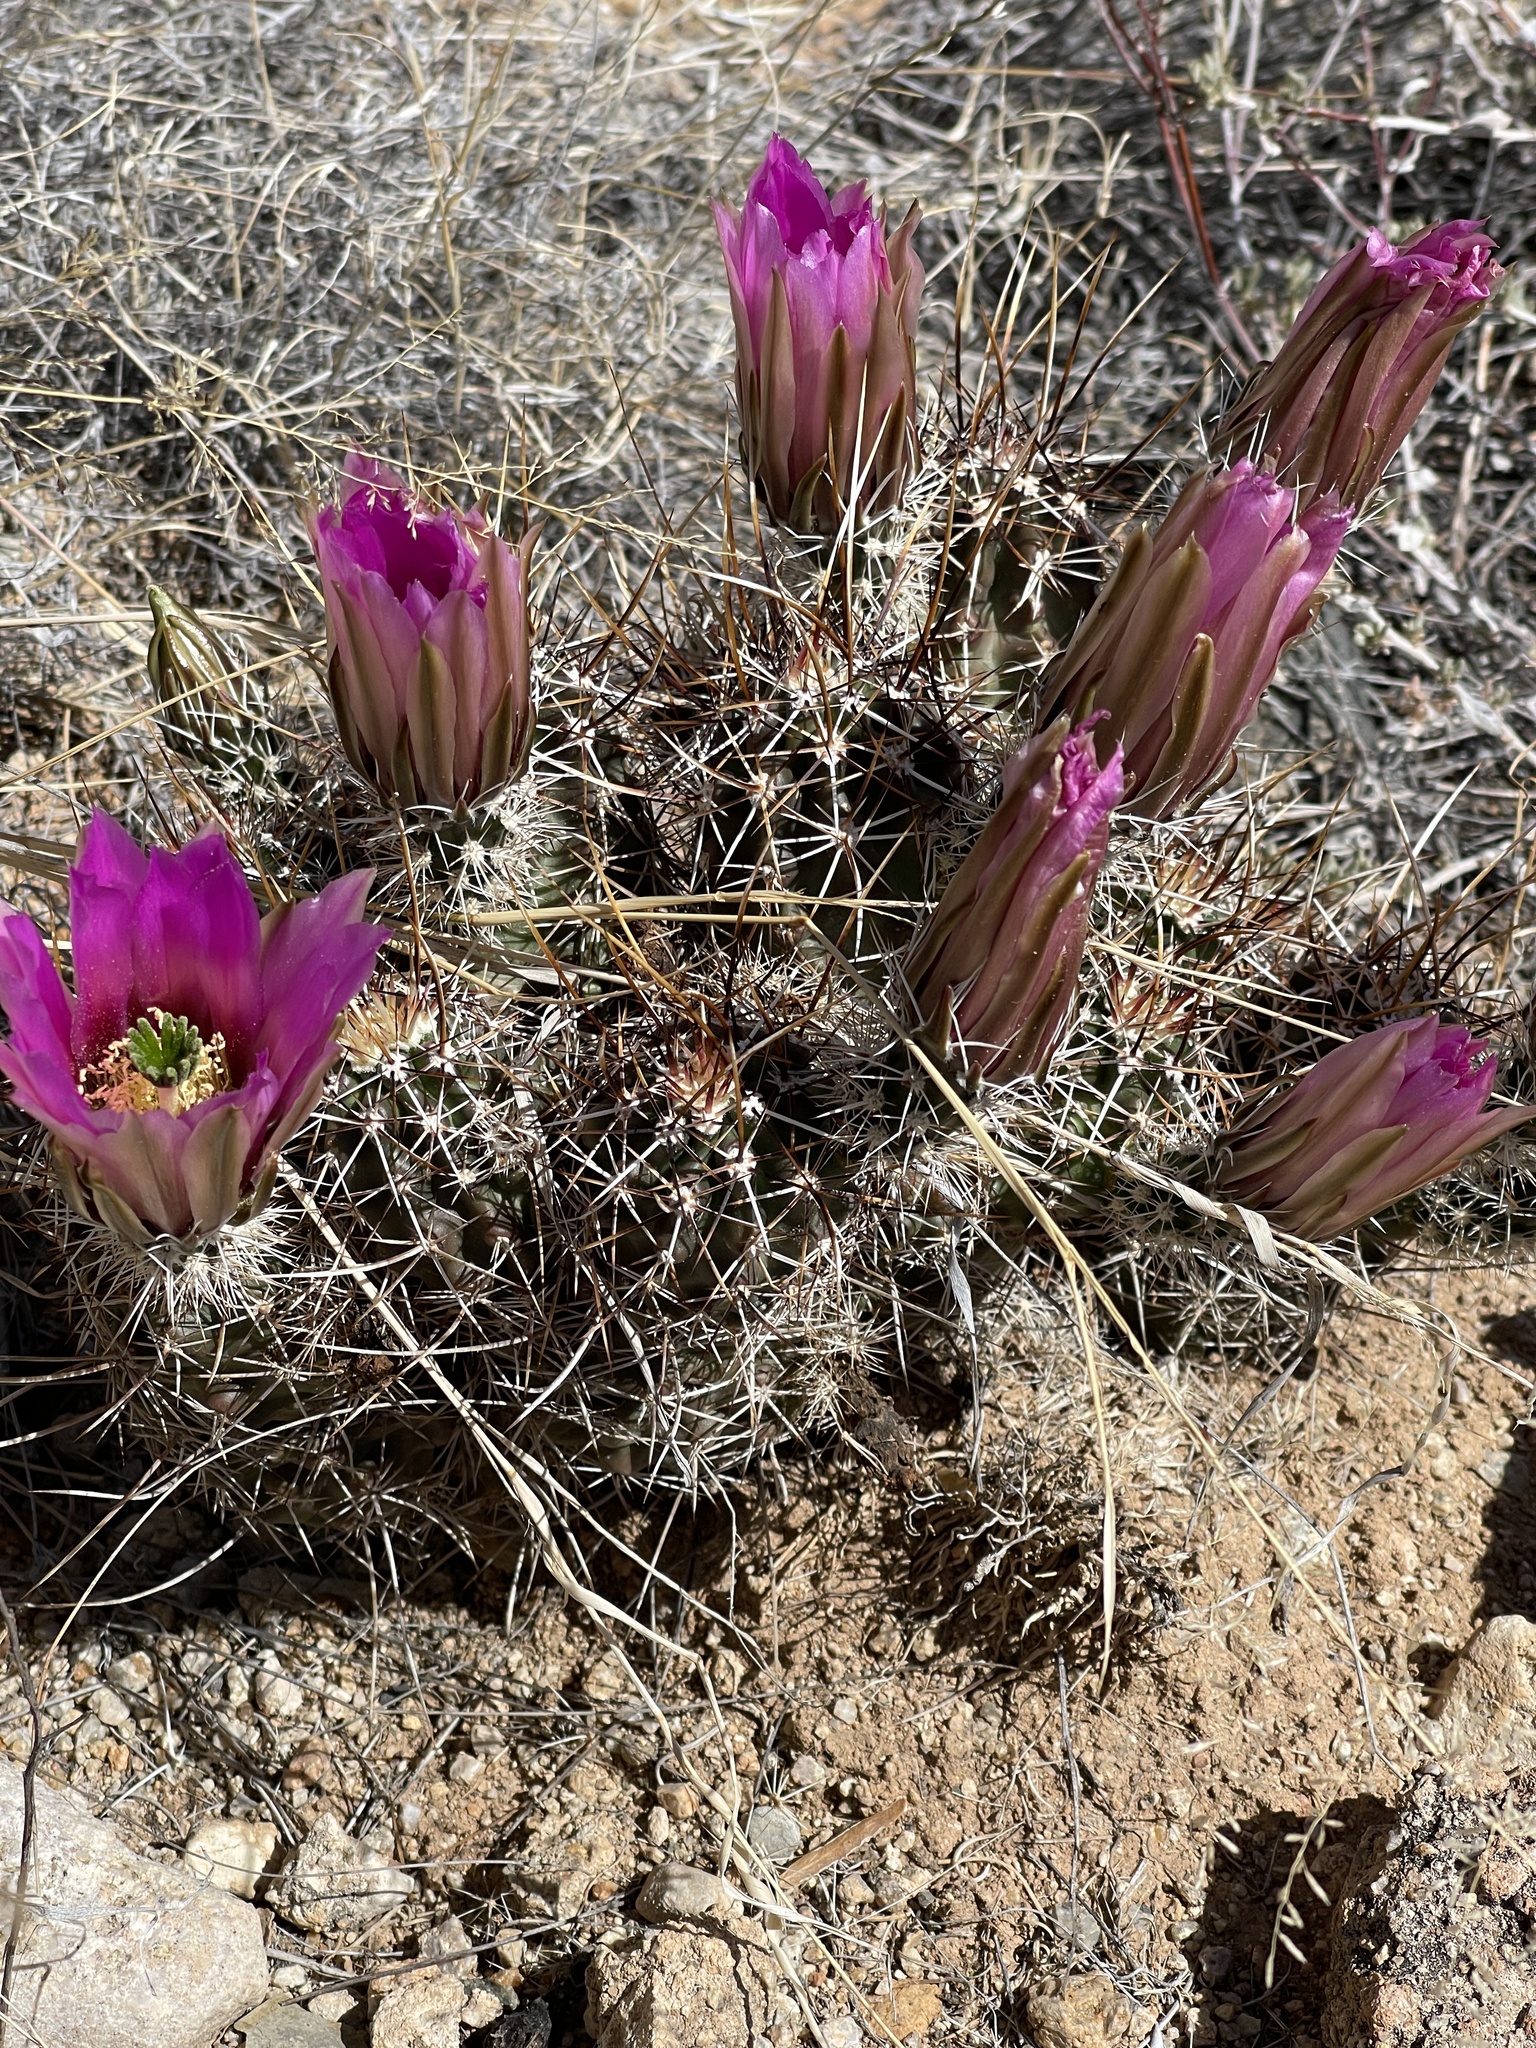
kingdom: Plantae
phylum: Tracheophyta
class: Magnoliopsida
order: Caryophyllales
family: Cactaceae
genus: Echinocereus
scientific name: Echinocereus fendleri
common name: Fendler's hedgehog cactus
